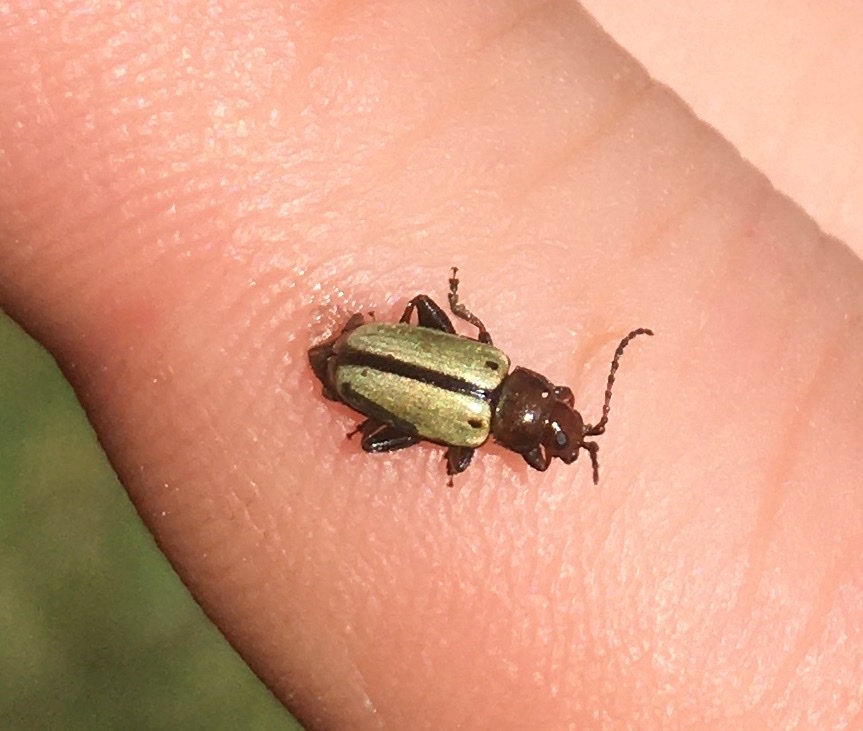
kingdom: Animalia
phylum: Arthropoda
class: Insecta
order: Coleoptera
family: Chrysomelidae
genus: Disonychodes
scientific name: Disonychodes
